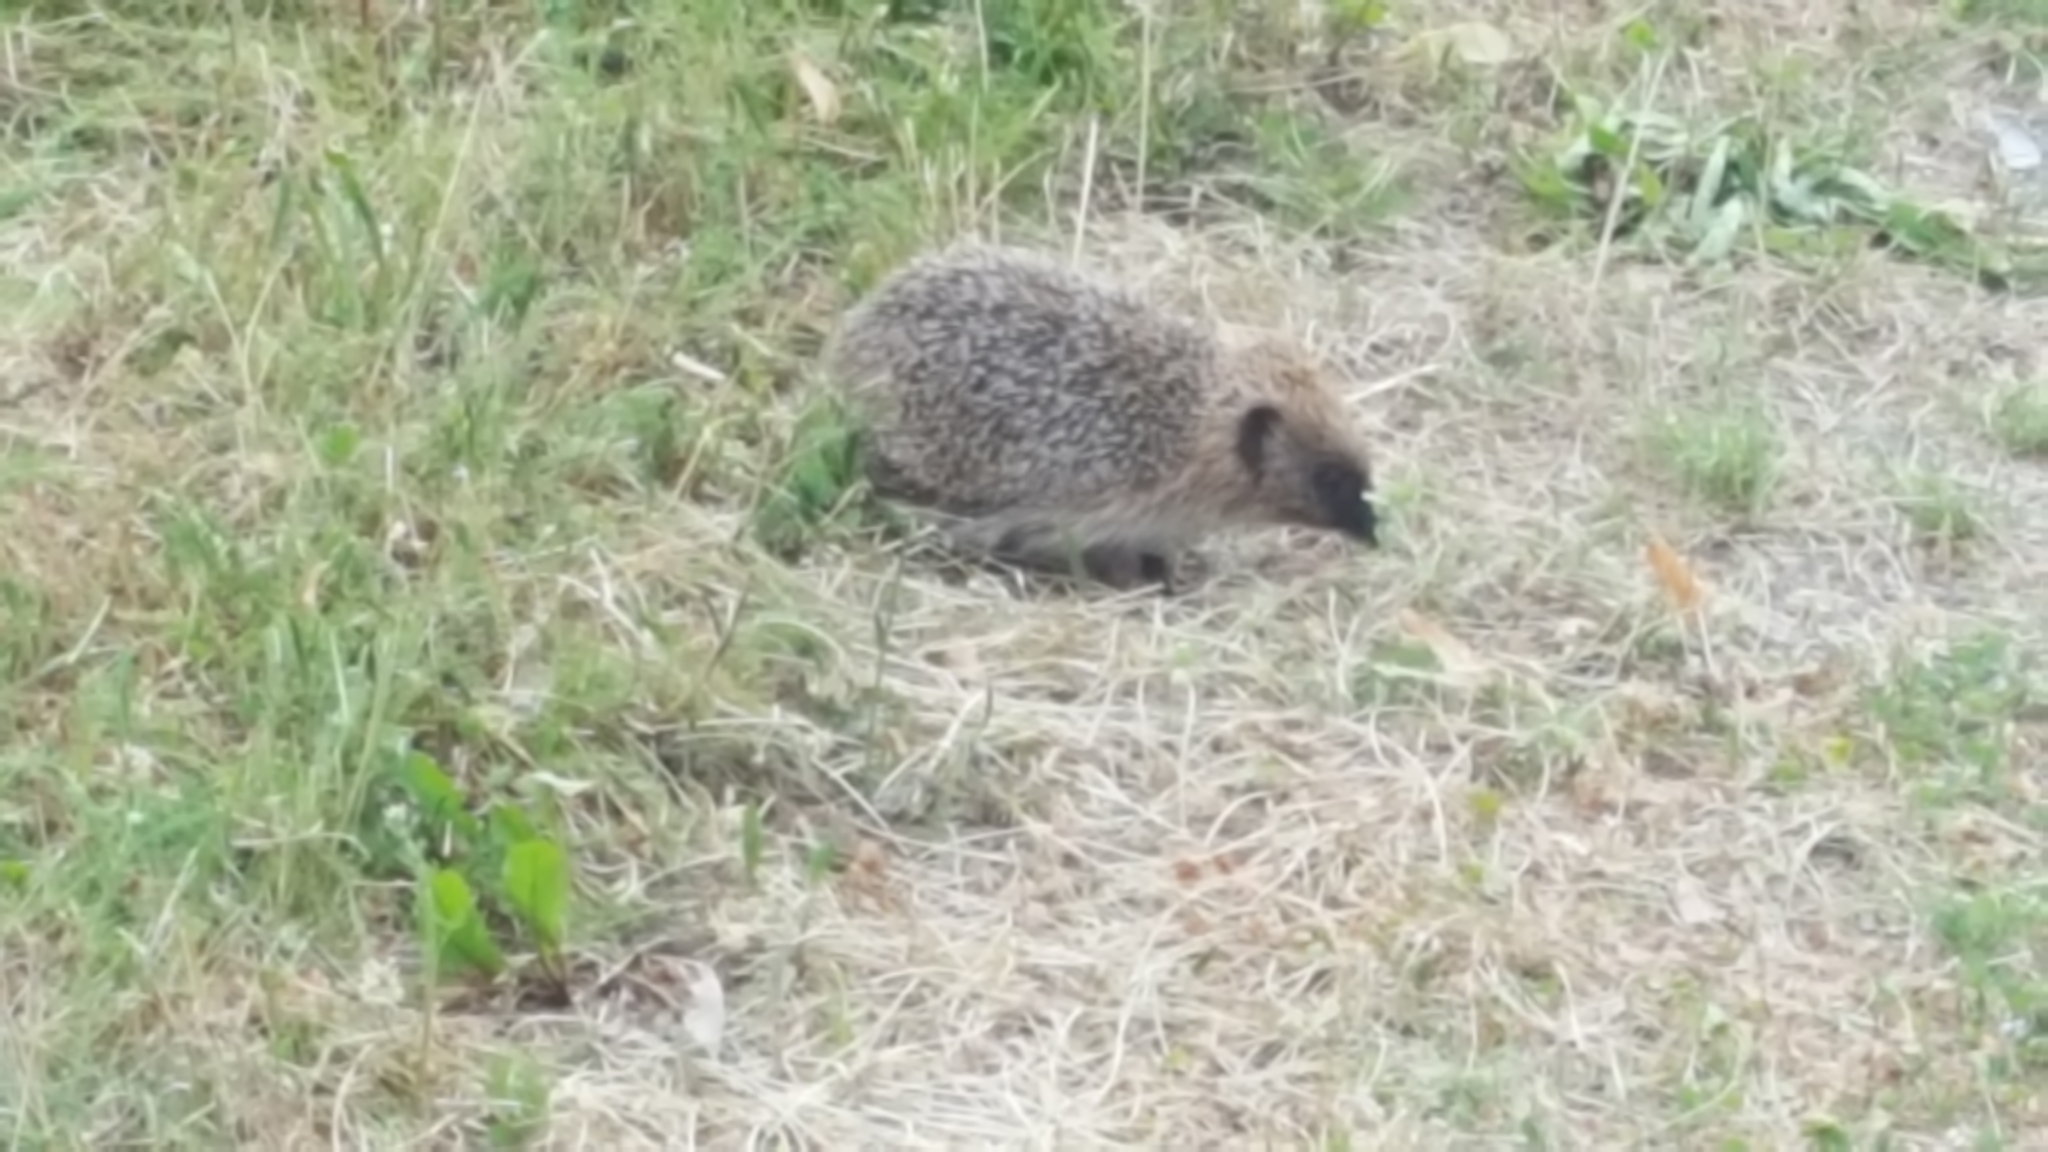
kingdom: Animalia
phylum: Chordata
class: Mammalia
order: Erinaceomorpha
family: Erinaceidae
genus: Erinaceus
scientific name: Erinaceus europaeus
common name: West european hedgehog
